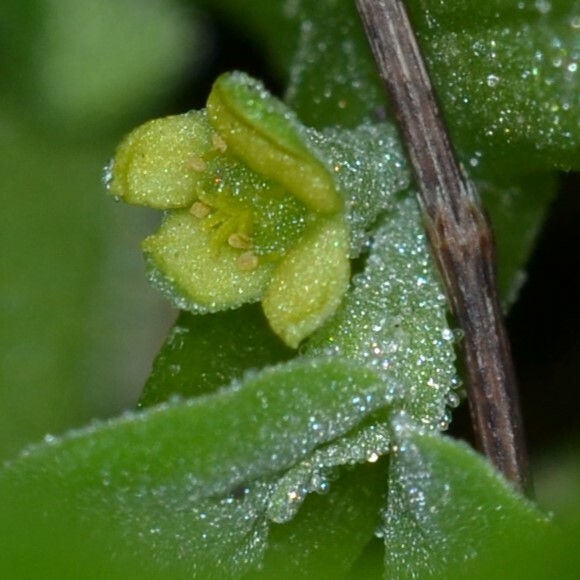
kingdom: Plantae
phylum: Tracheophyta
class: Magnoliopsida
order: Caryophyllales
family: Aizoaceae
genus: Tetragonia
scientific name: Tetragonia tetragonoides
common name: New zealand-spinach
